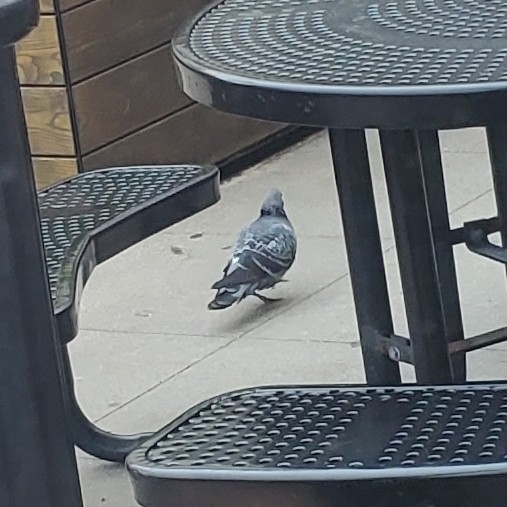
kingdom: Animalia
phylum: Chordata
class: Aves
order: Columbiformes
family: Columbidae
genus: Columba
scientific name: Columba livia
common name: Rock pigeon
